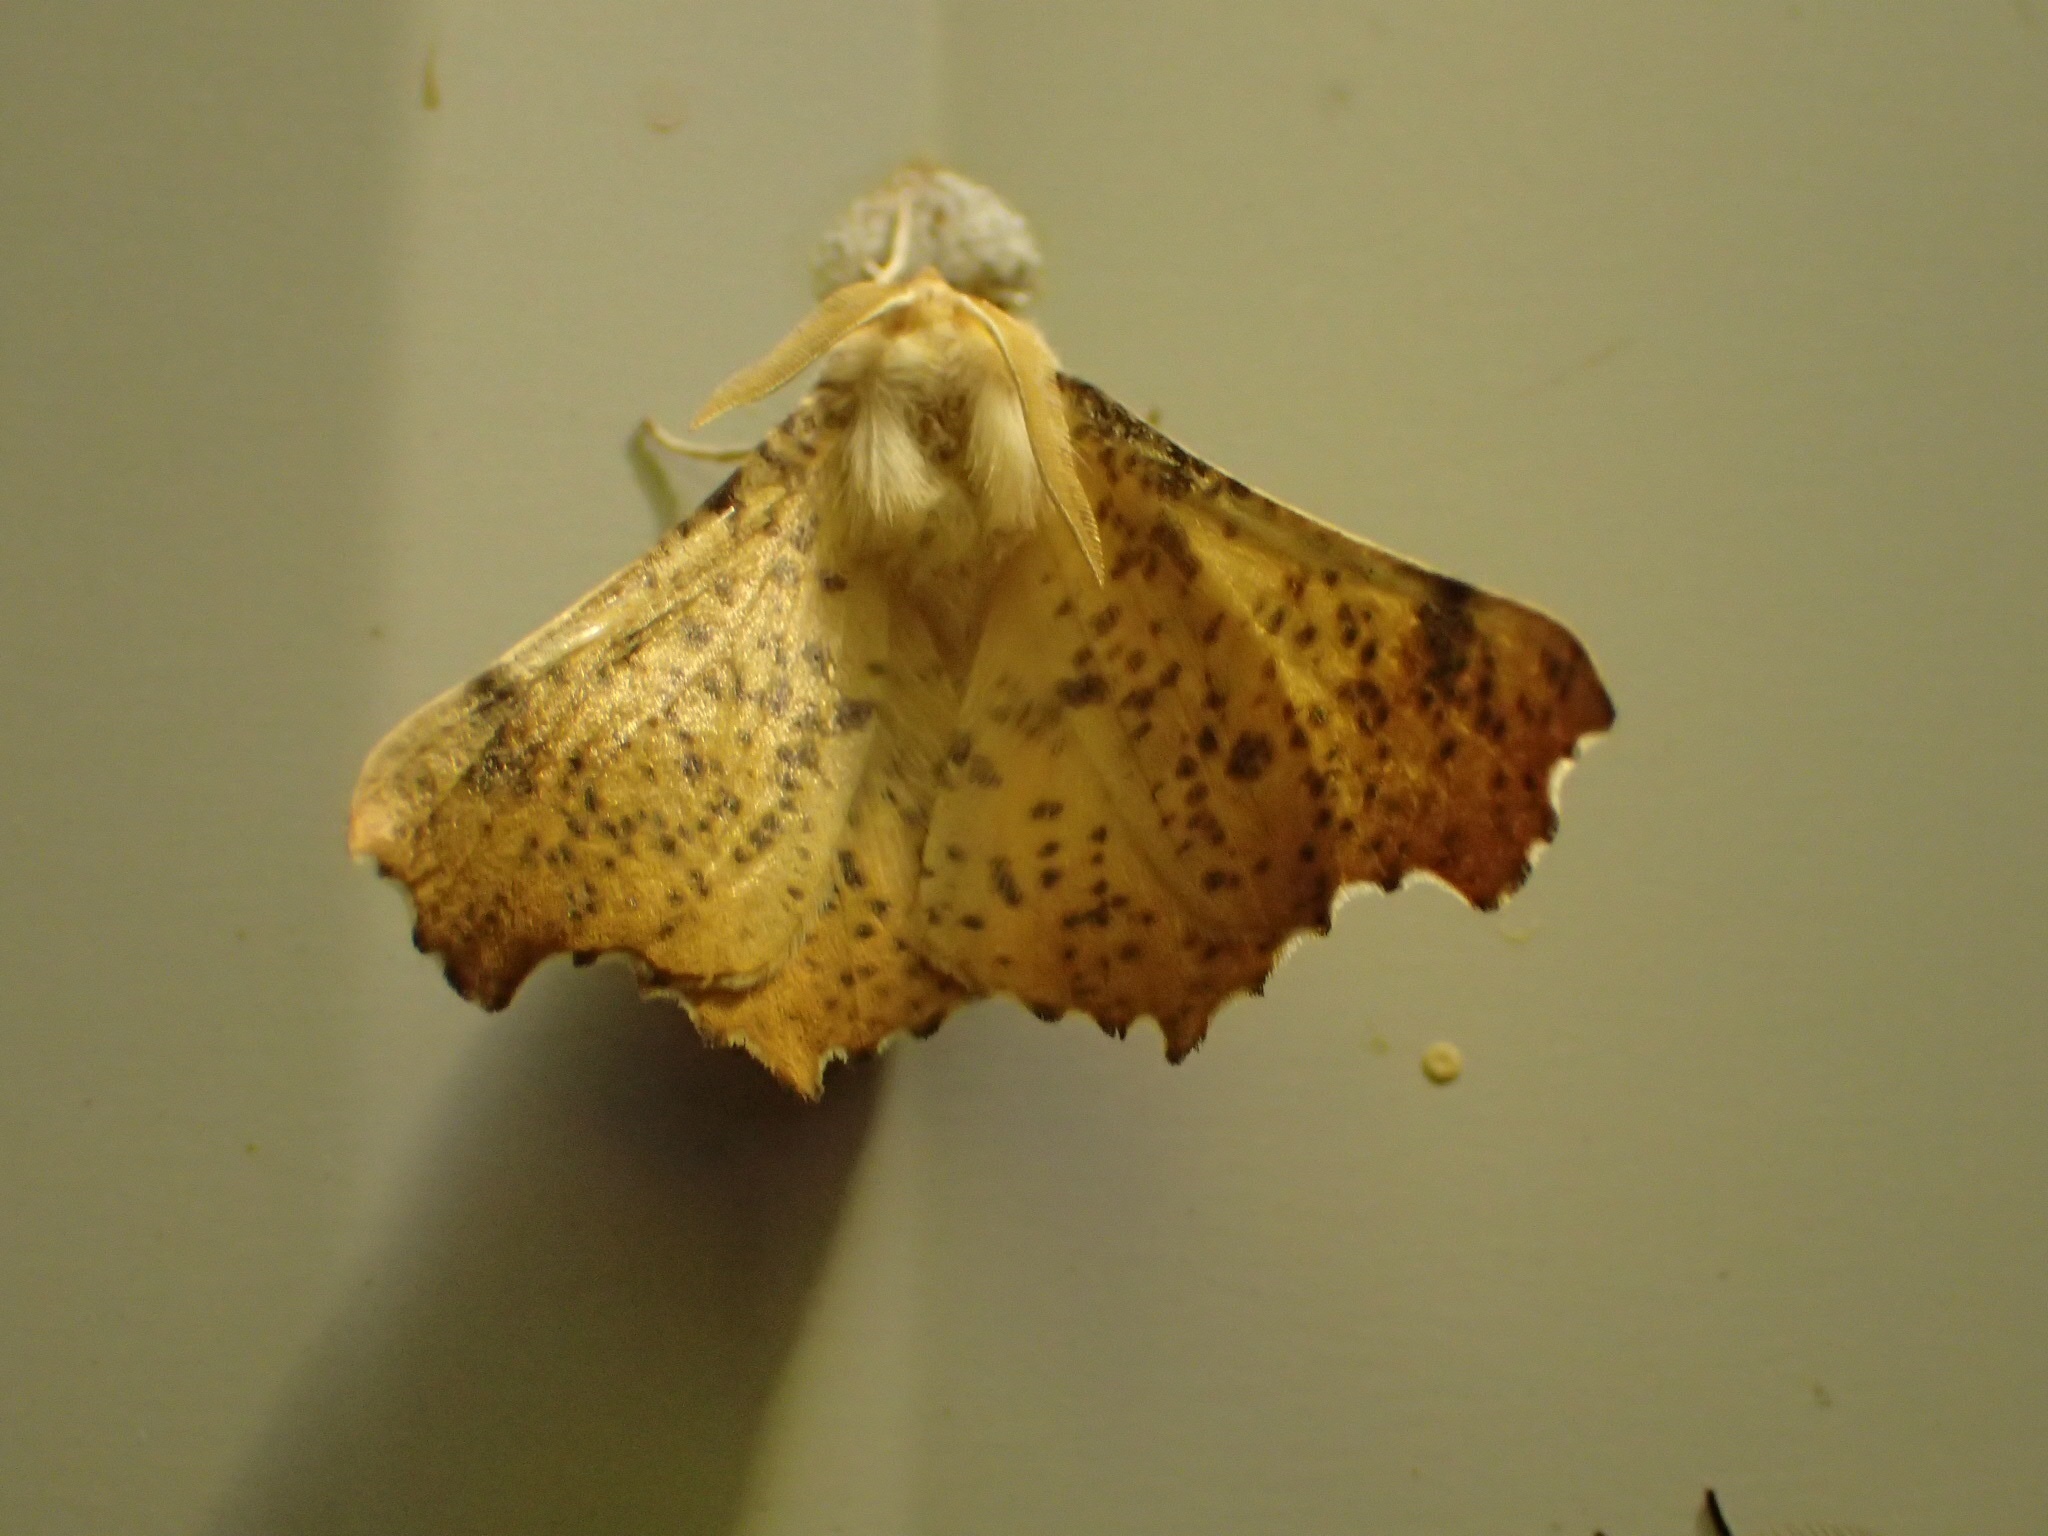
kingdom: Animalia
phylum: Arthropoda
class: Insecta
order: Lepidoptera
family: Geometridae
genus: Ennomos
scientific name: Ennomos magnaria
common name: Maple spanworm
